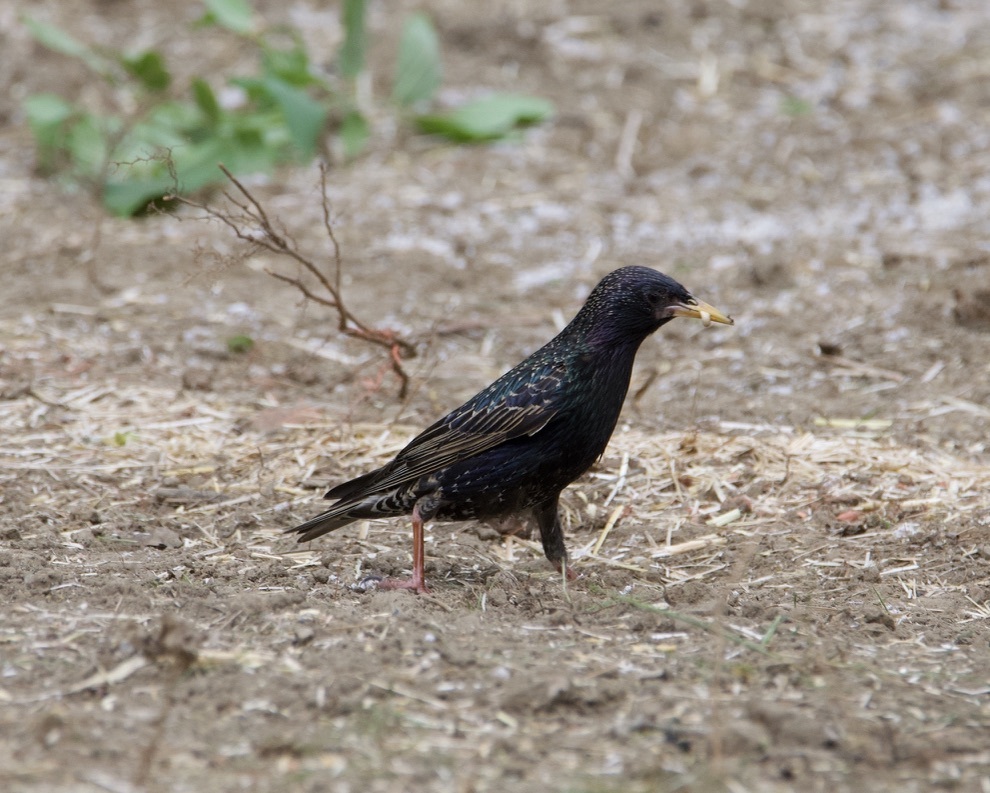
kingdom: Animalia
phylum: Chordata
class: Aves
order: Passeriformes
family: Sturnidae
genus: Sturnus
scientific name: Sturnus vulgaris
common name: Common starling
